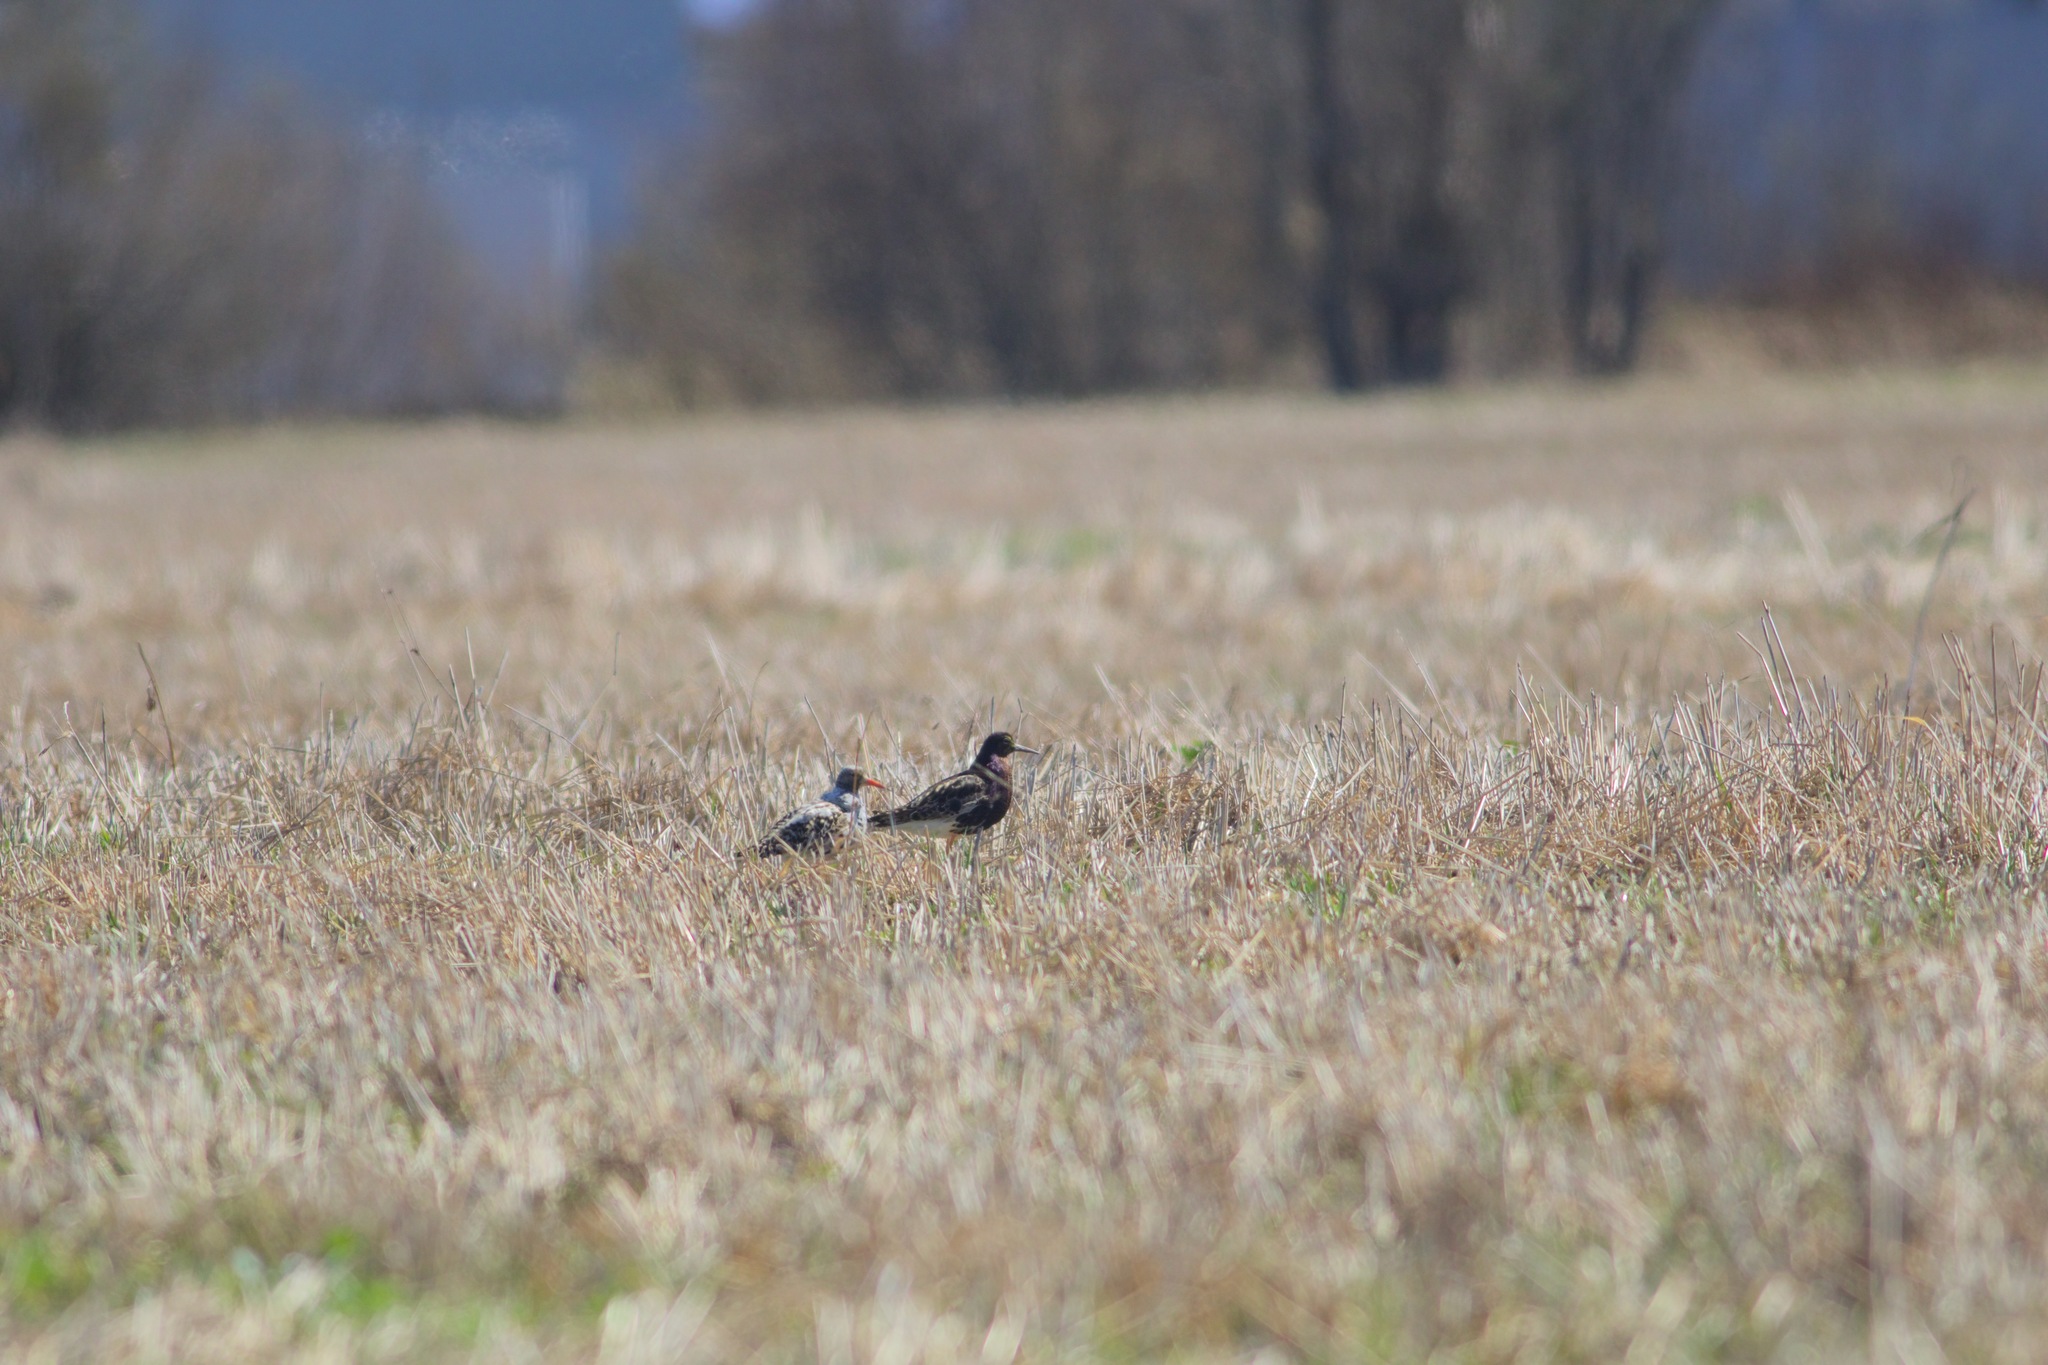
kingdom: Animalia
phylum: Chordata
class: Aves
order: Charadriiformes
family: Scolopacidae
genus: Calidris
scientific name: Calidris pugnax
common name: Ruff
